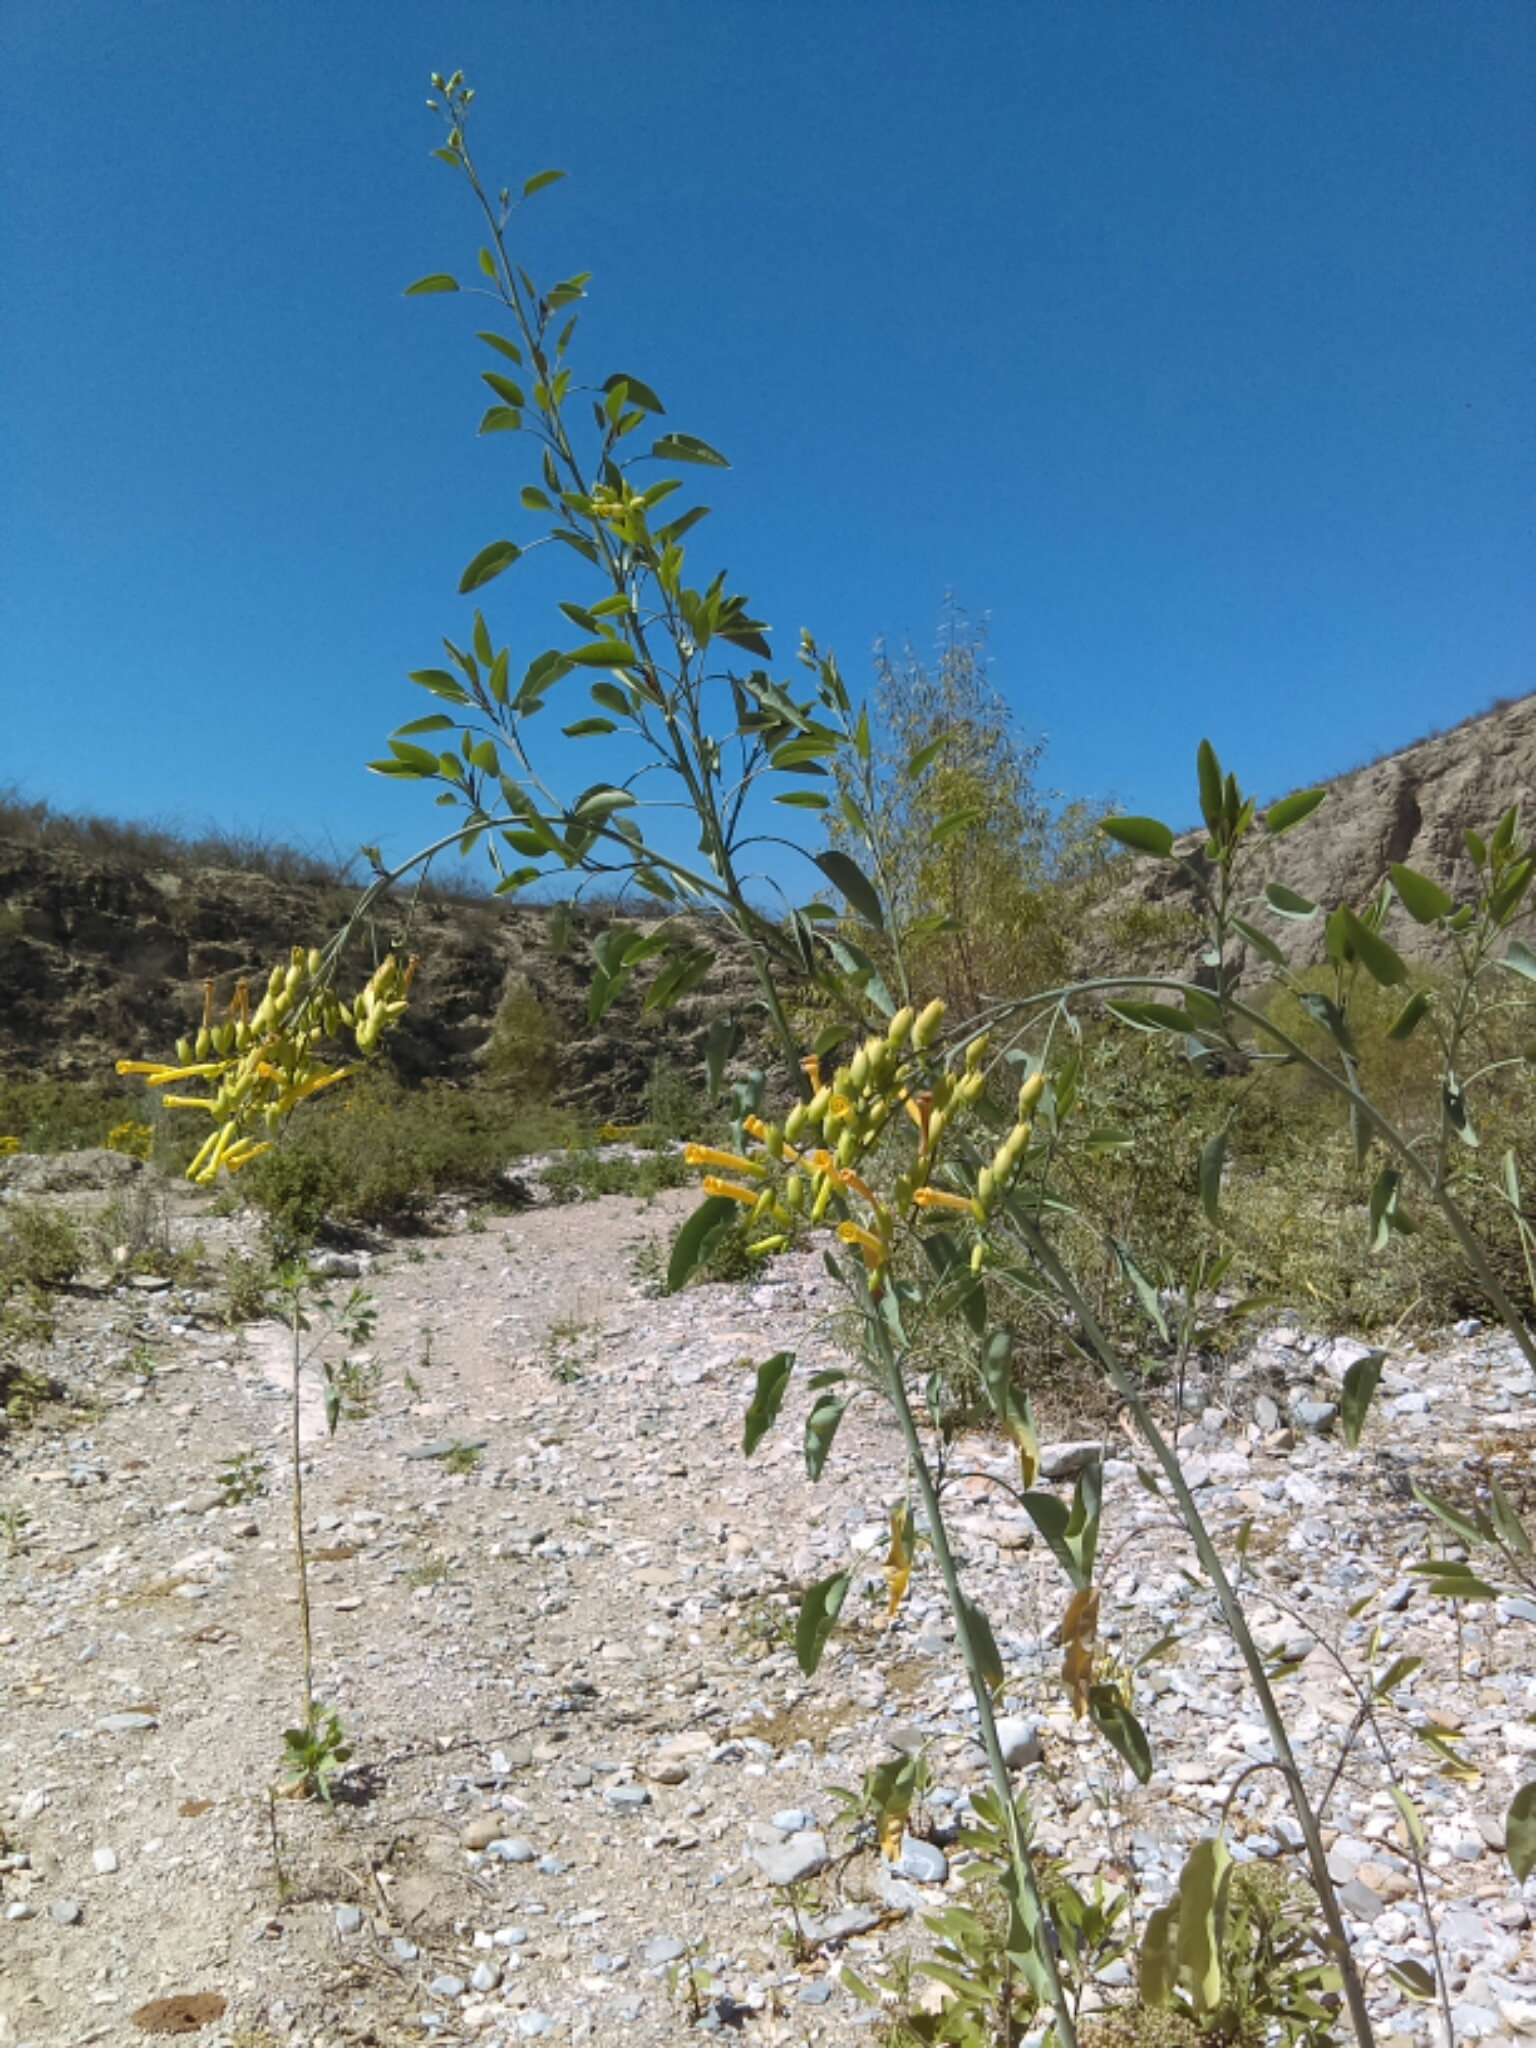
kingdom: Plantae
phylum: Tracheophyta
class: Magnoliopsida
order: Solanales
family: Solanaceae
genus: Nicotiana
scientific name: Nicotiana glauca
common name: Tree tobacco
